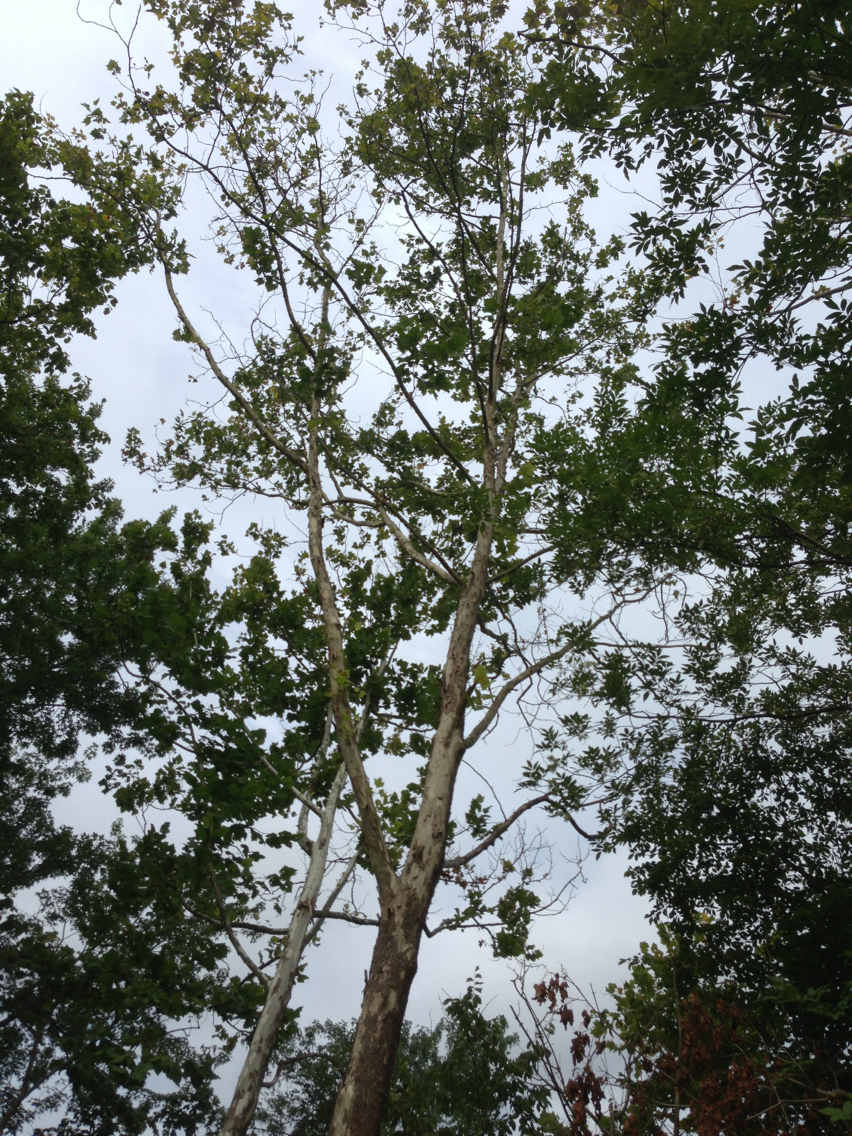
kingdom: Plantae
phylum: Tracheophyta
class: Magnoliopsida
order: Proteales
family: Platanaceae
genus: Platanus
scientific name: Platanus occidentalis
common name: American sycamore
